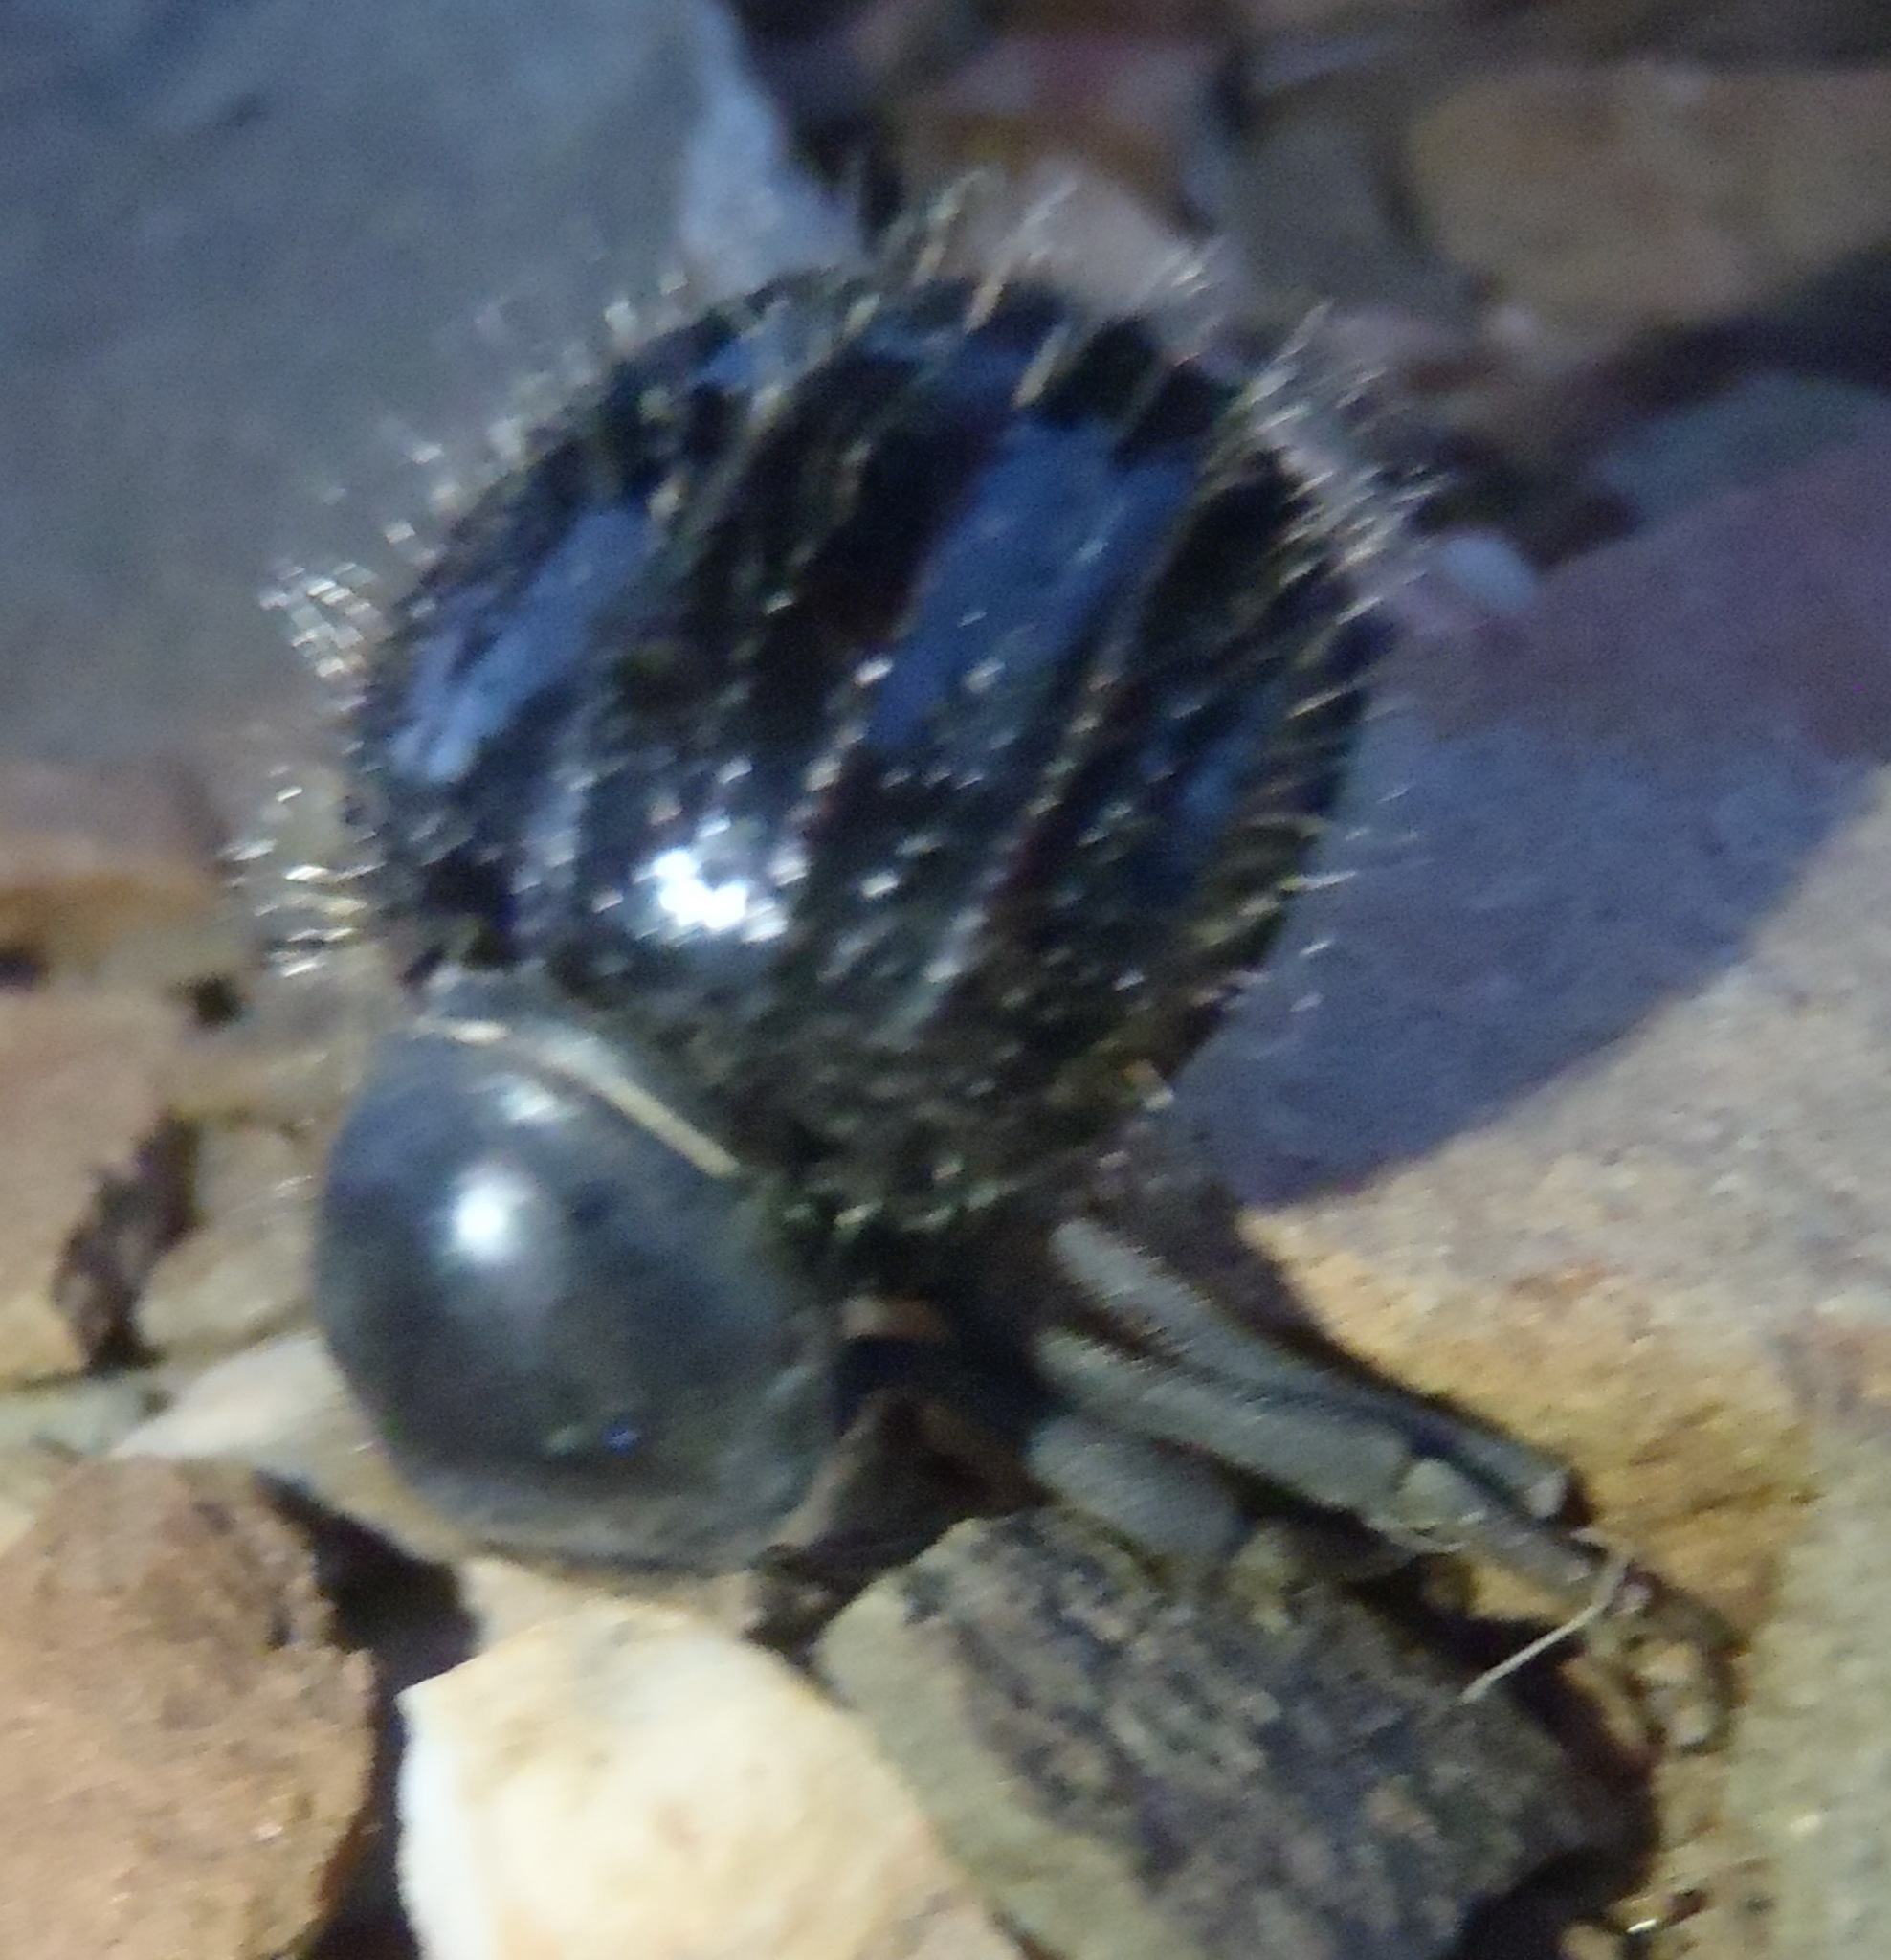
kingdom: Animalia
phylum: Arthropoda
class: Insecta
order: Coleoptera
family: Tenebrionidae
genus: Moluris
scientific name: Moluris gibbosa
